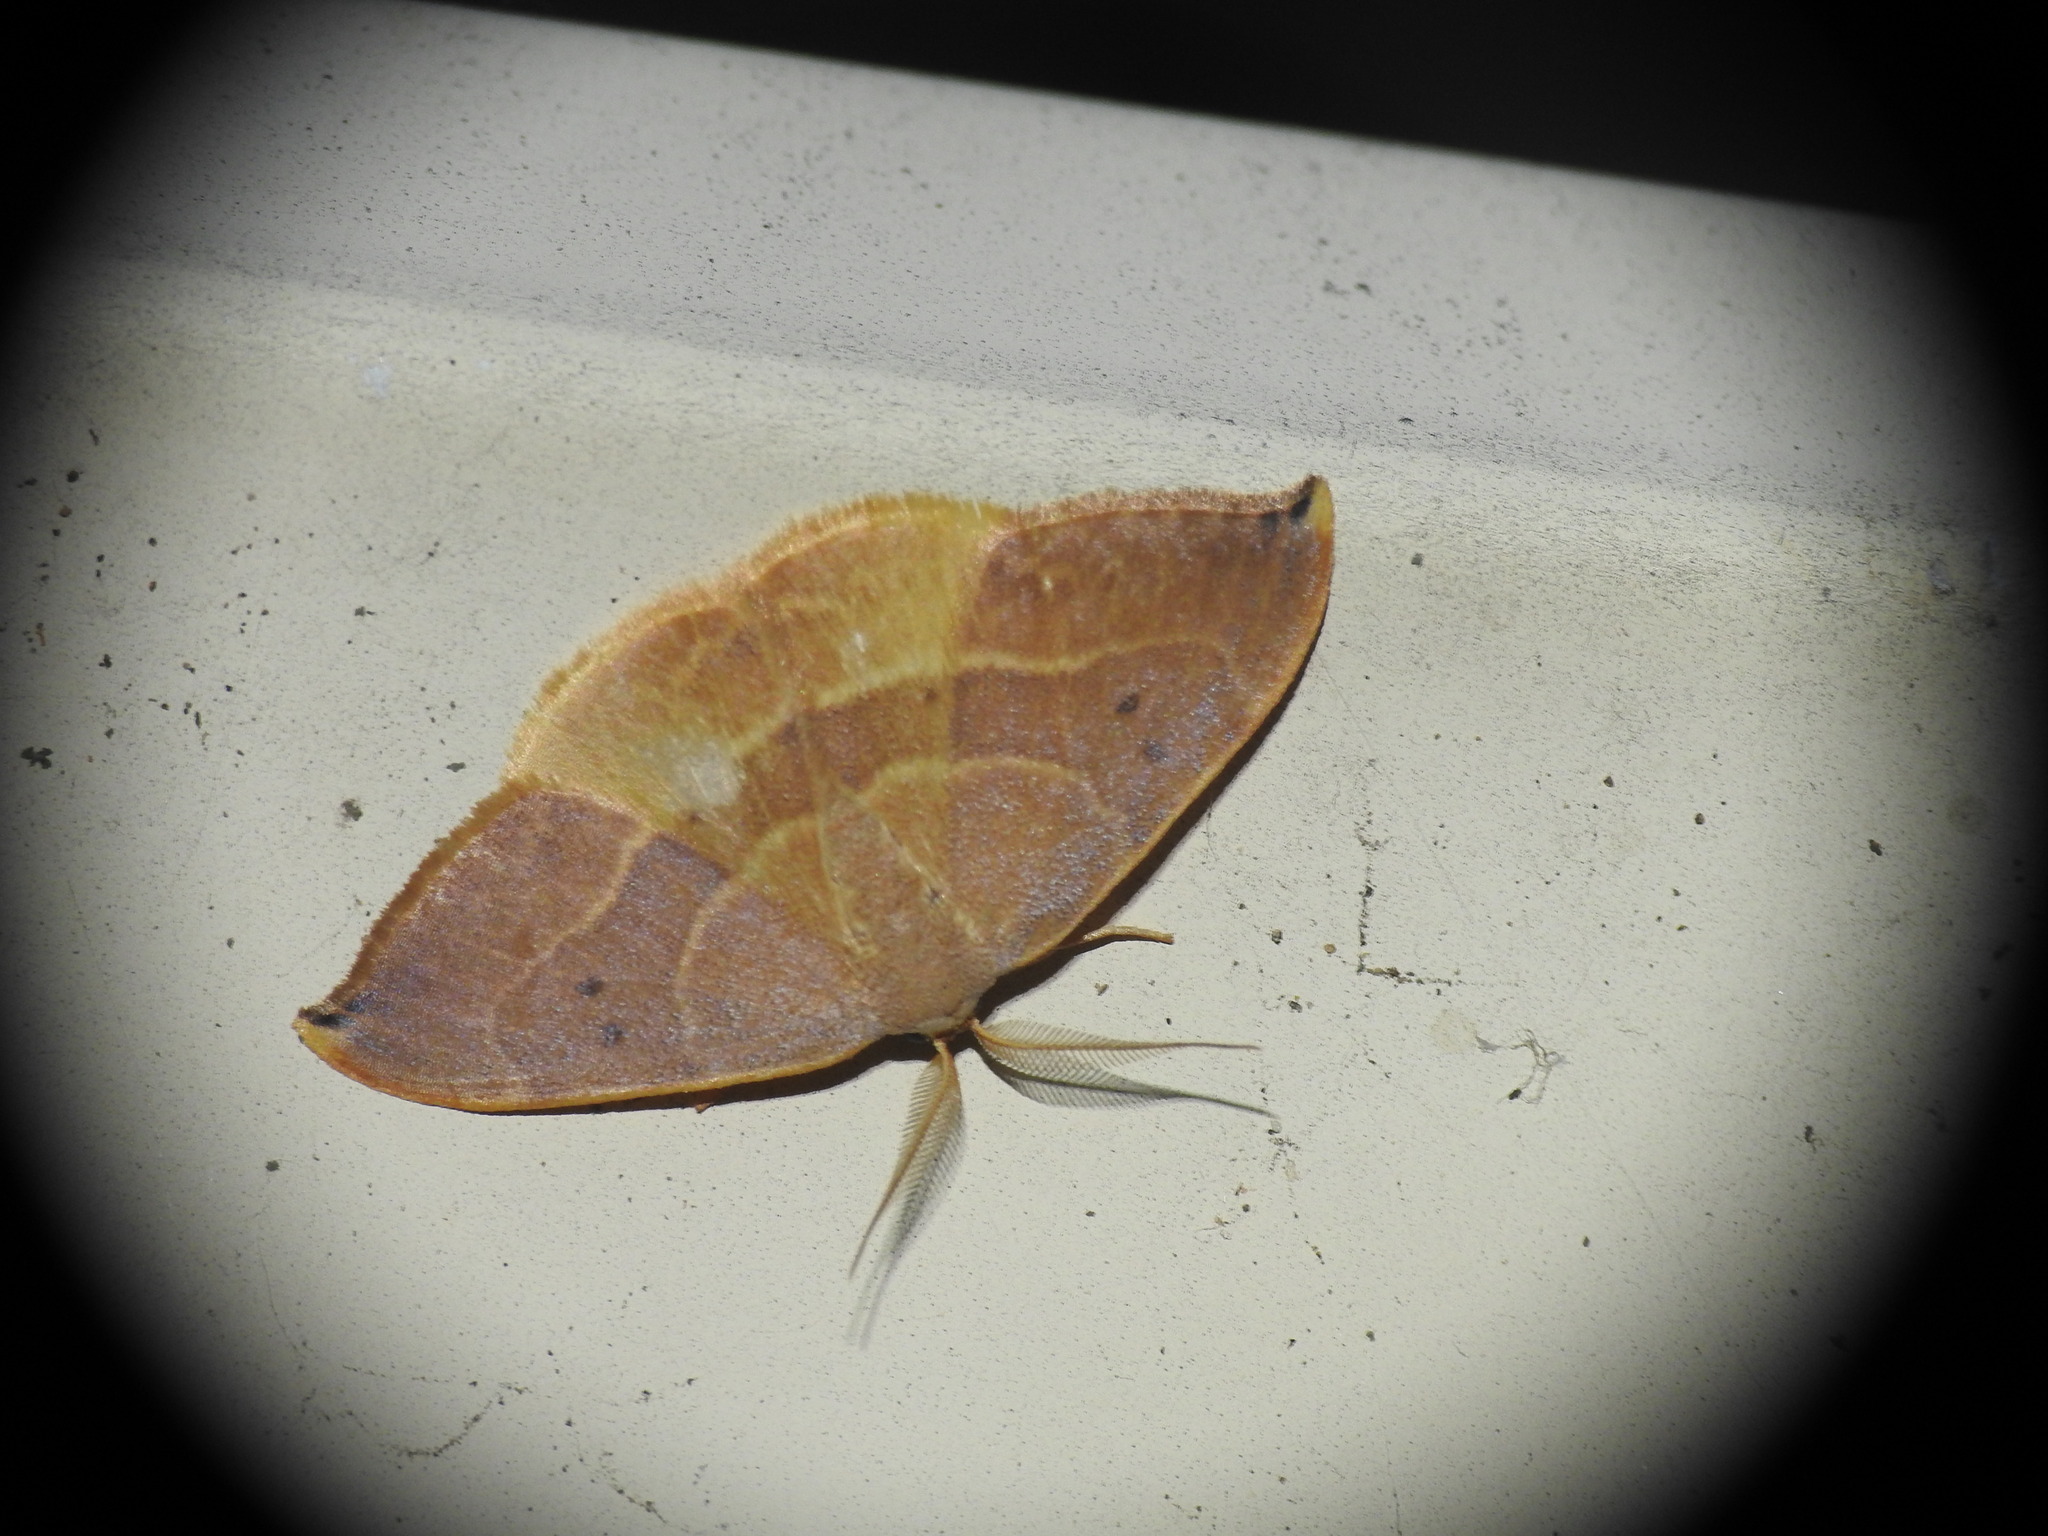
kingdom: Animalia
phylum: Arthropoda
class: Insecta
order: Lepidoptera
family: Drepanidae
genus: Watsonalla
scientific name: Watsonalla uncinula
